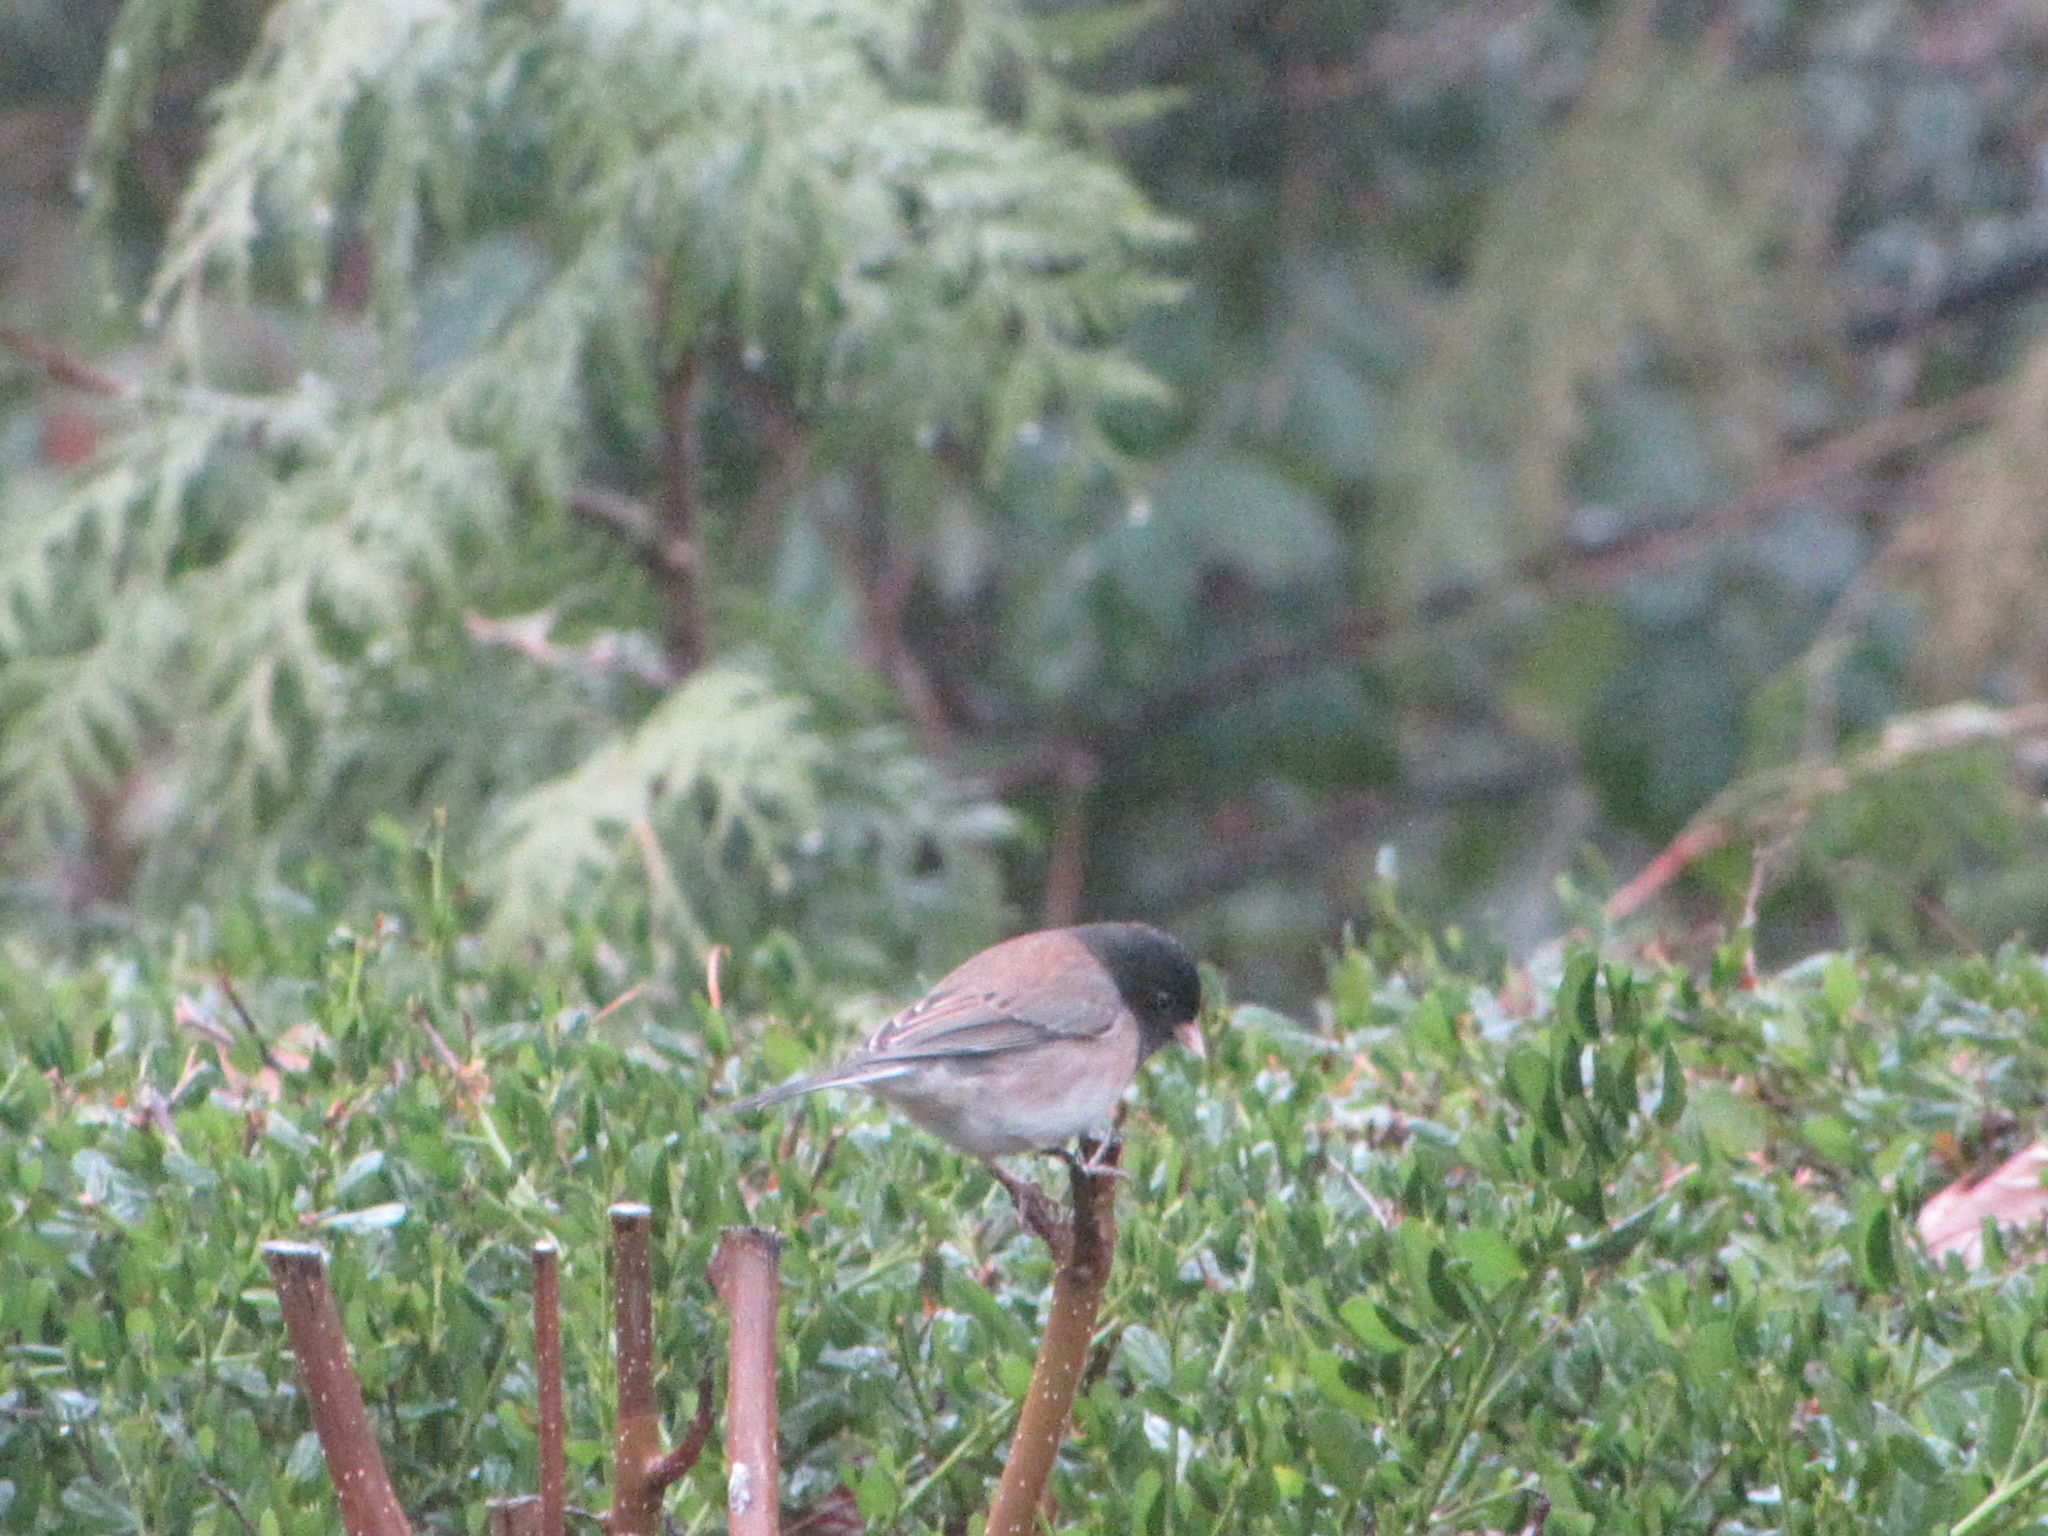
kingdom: Animalia
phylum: Chordata
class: Aves
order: Passeriformes
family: Passerellidae
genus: Junco
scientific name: Junco hyemalis
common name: Dark-eyed junco
